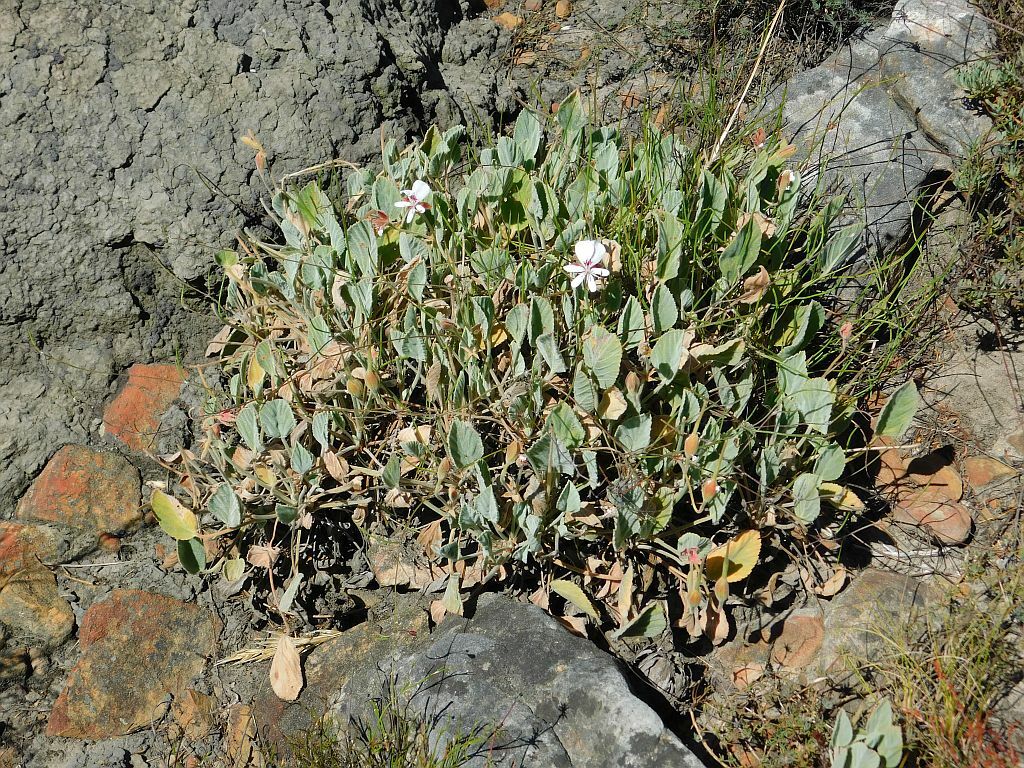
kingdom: Plantae
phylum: Tracheophyta
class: Magnoliopsida
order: Geraniales
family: Geraniaceae
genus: Pelargonium
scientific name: Pelargonium ovale
